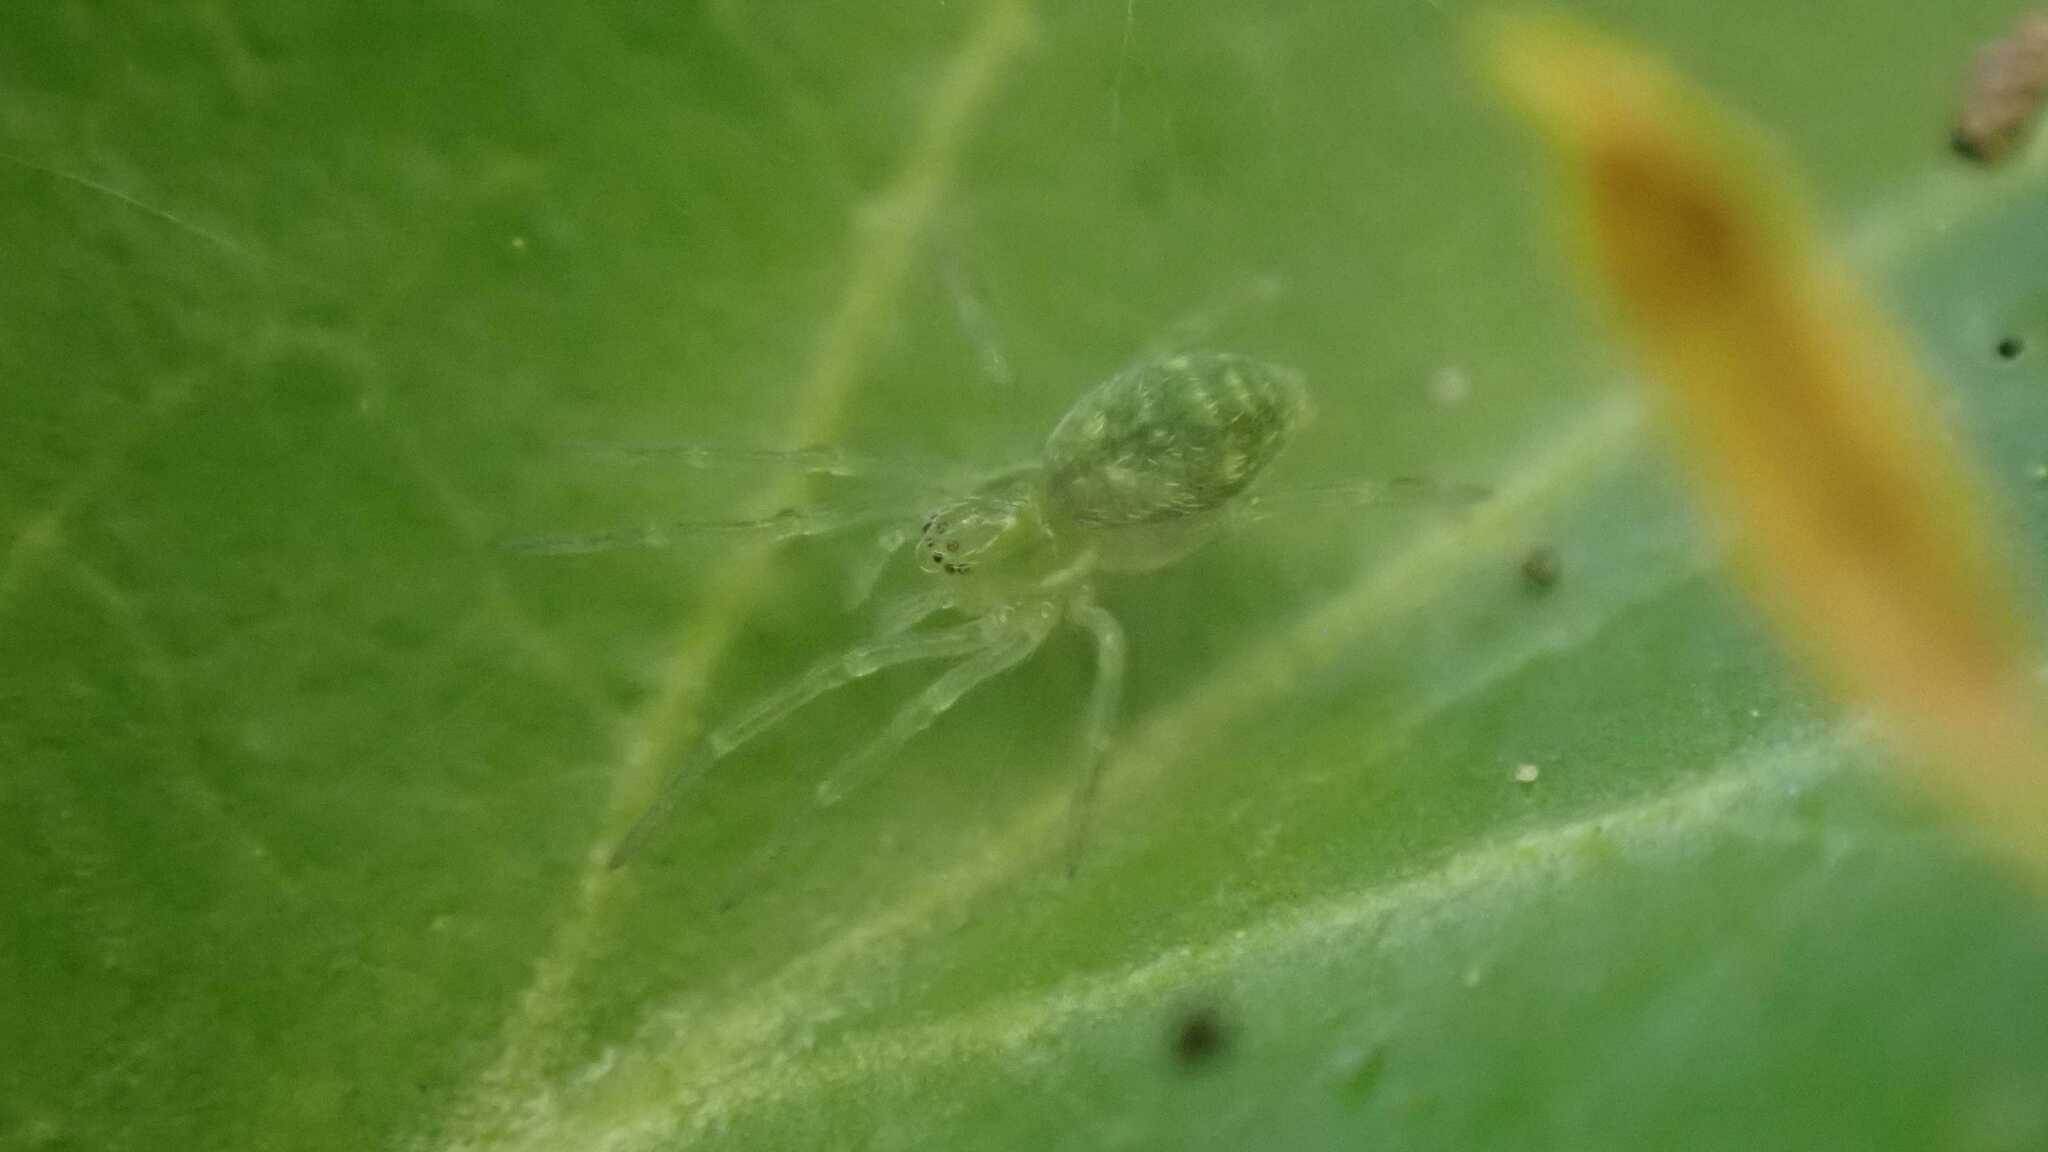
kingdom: Animalia
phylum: Arthropoda
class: Arachnida
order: Araneae
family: Dictynidae
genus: Nigma
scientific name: Nigma walckenaeri
